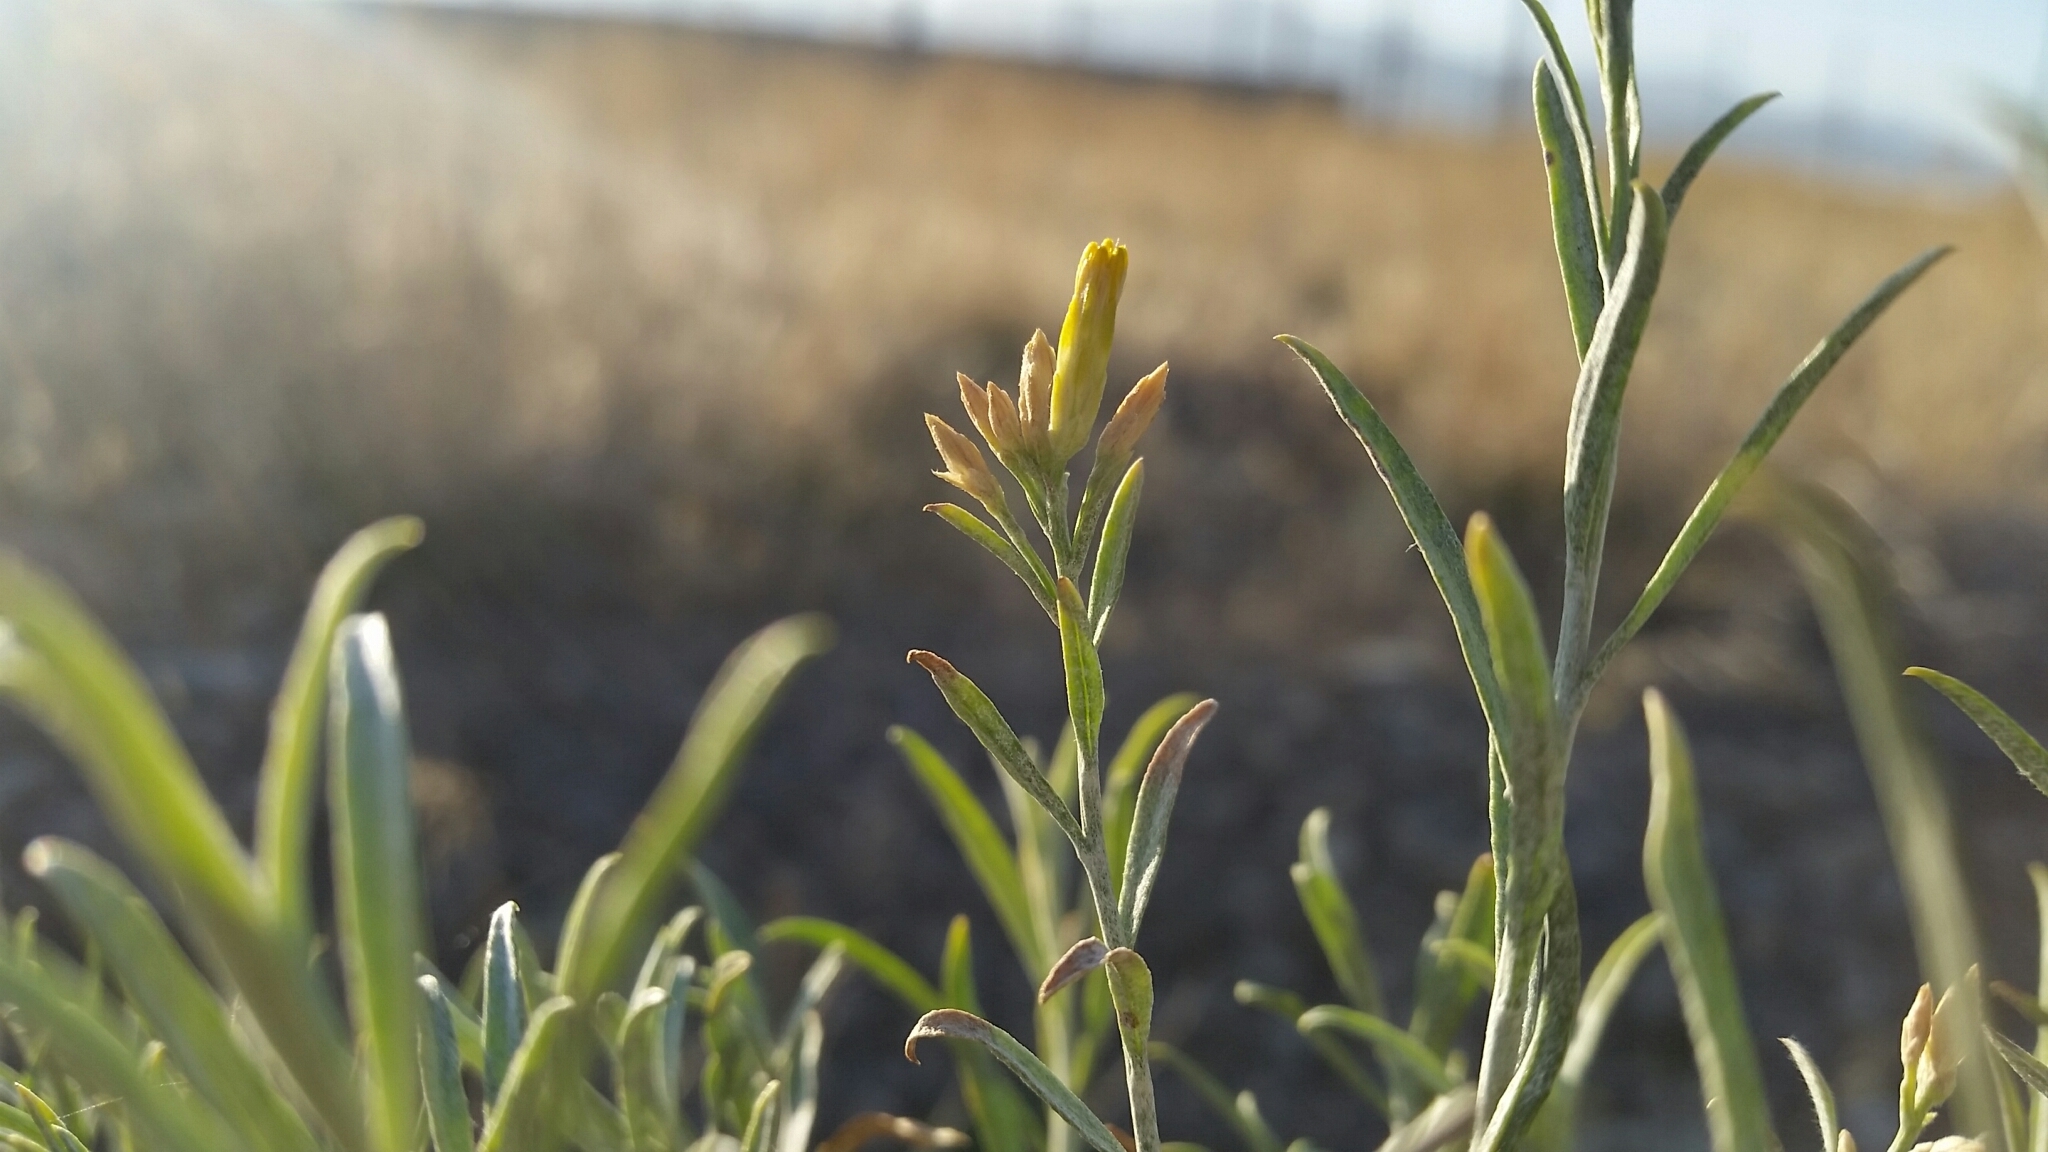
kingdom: Plantae
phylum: Tracheophyta
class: Magnoliopsida
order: Asterales
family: Asteraceae
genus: Ericameria
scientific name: Ericameria nauseosa
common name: Rubber rabbitbrush
